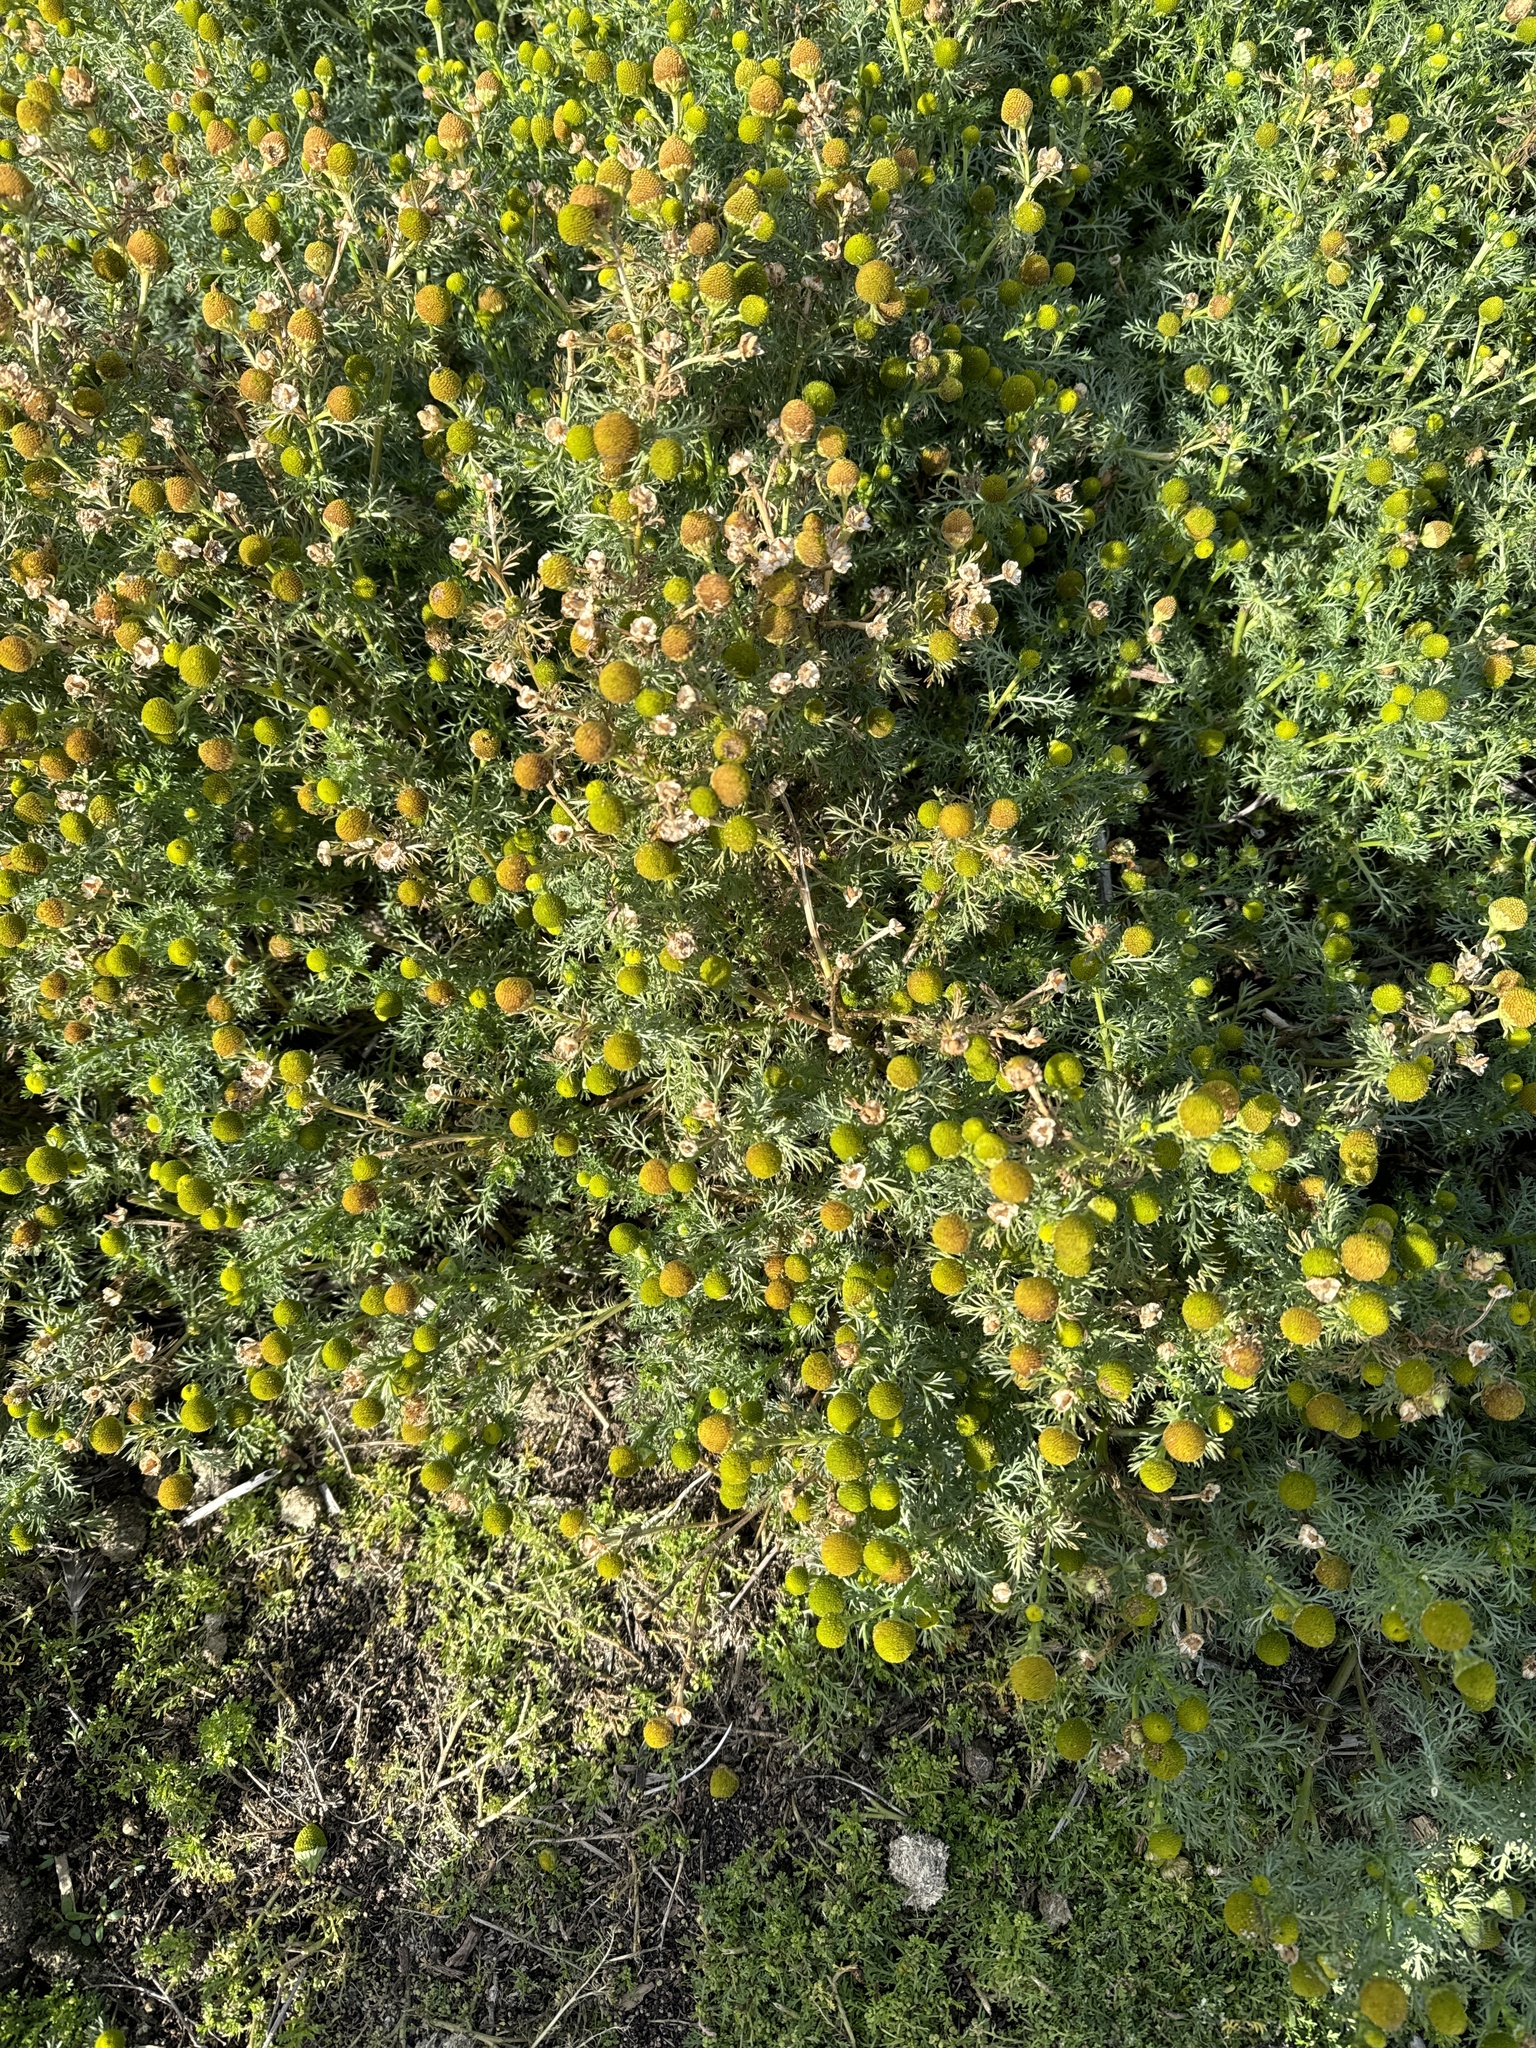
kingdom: Plantae
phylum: Tracheophyta
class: Magnoliopsida
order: Asterales
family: Asteraceae
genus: Matricaria
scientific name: Matricaria discoidea
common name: Disc mayweed
